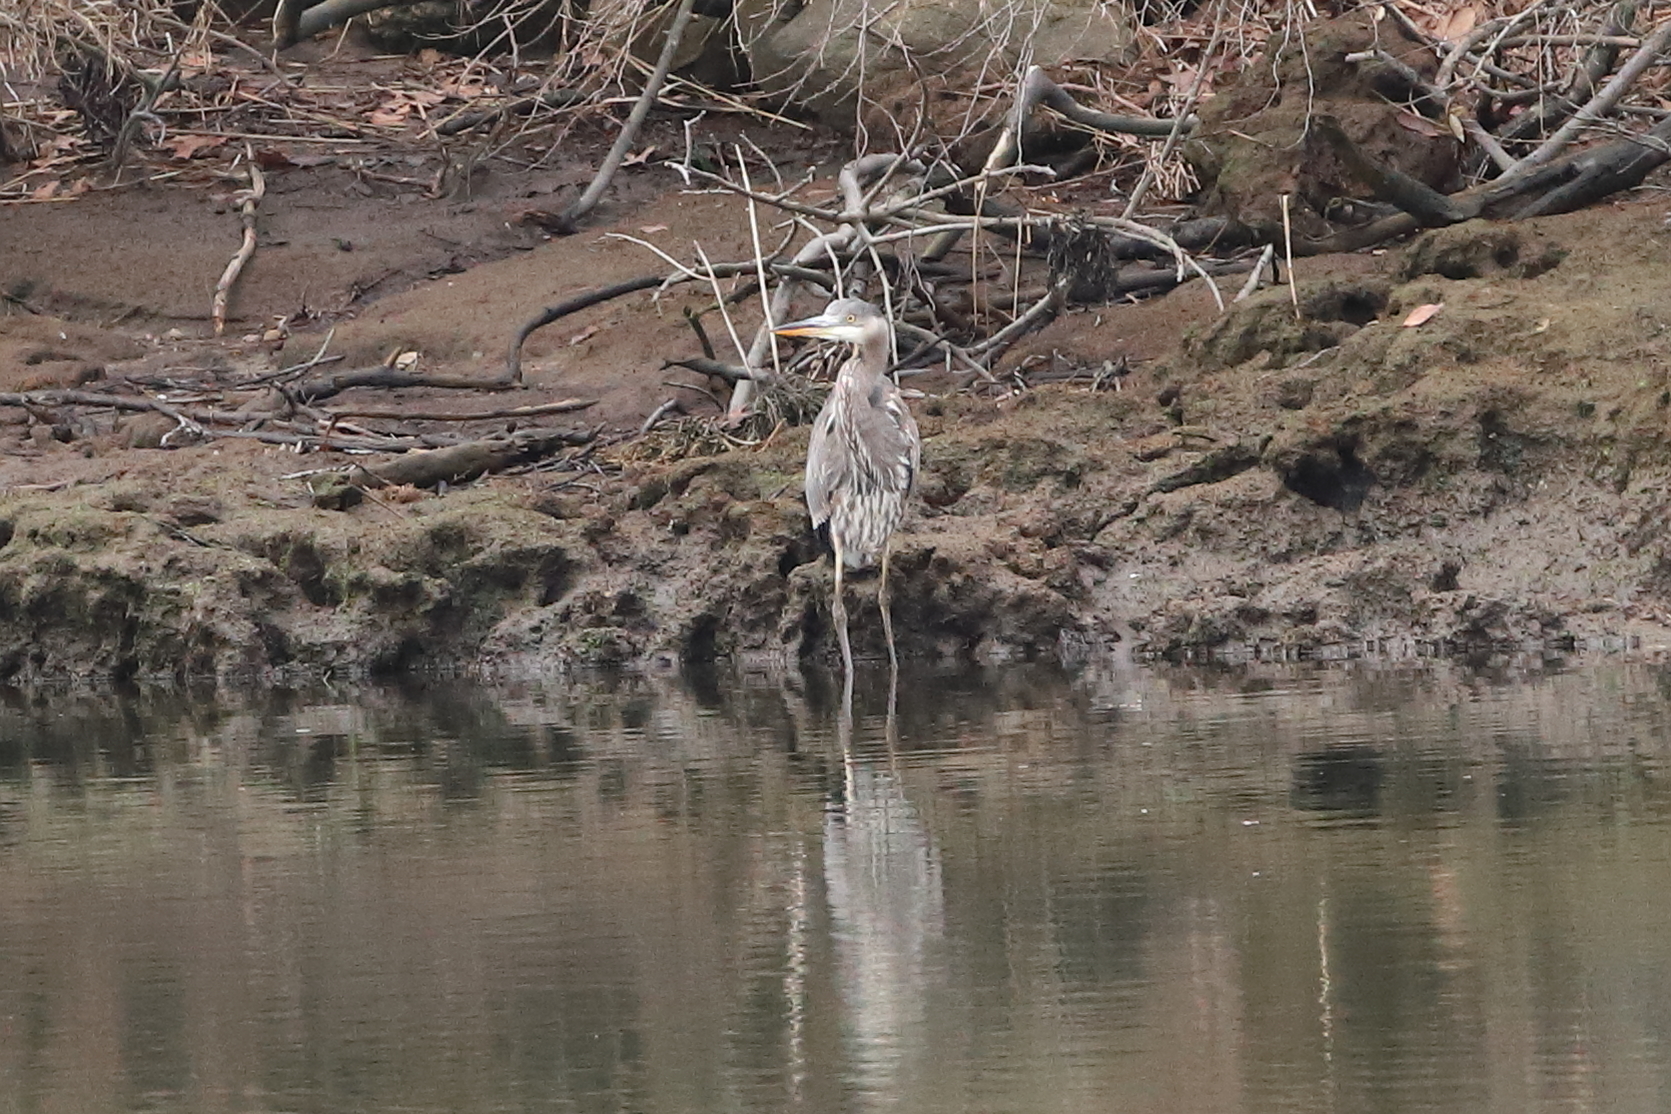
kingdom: Animalia
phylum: Chordata
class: Aves
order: Pelecaniformes
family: Ardeidae
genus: Ardea
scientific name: Ardea herodias
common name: Great blue heron
